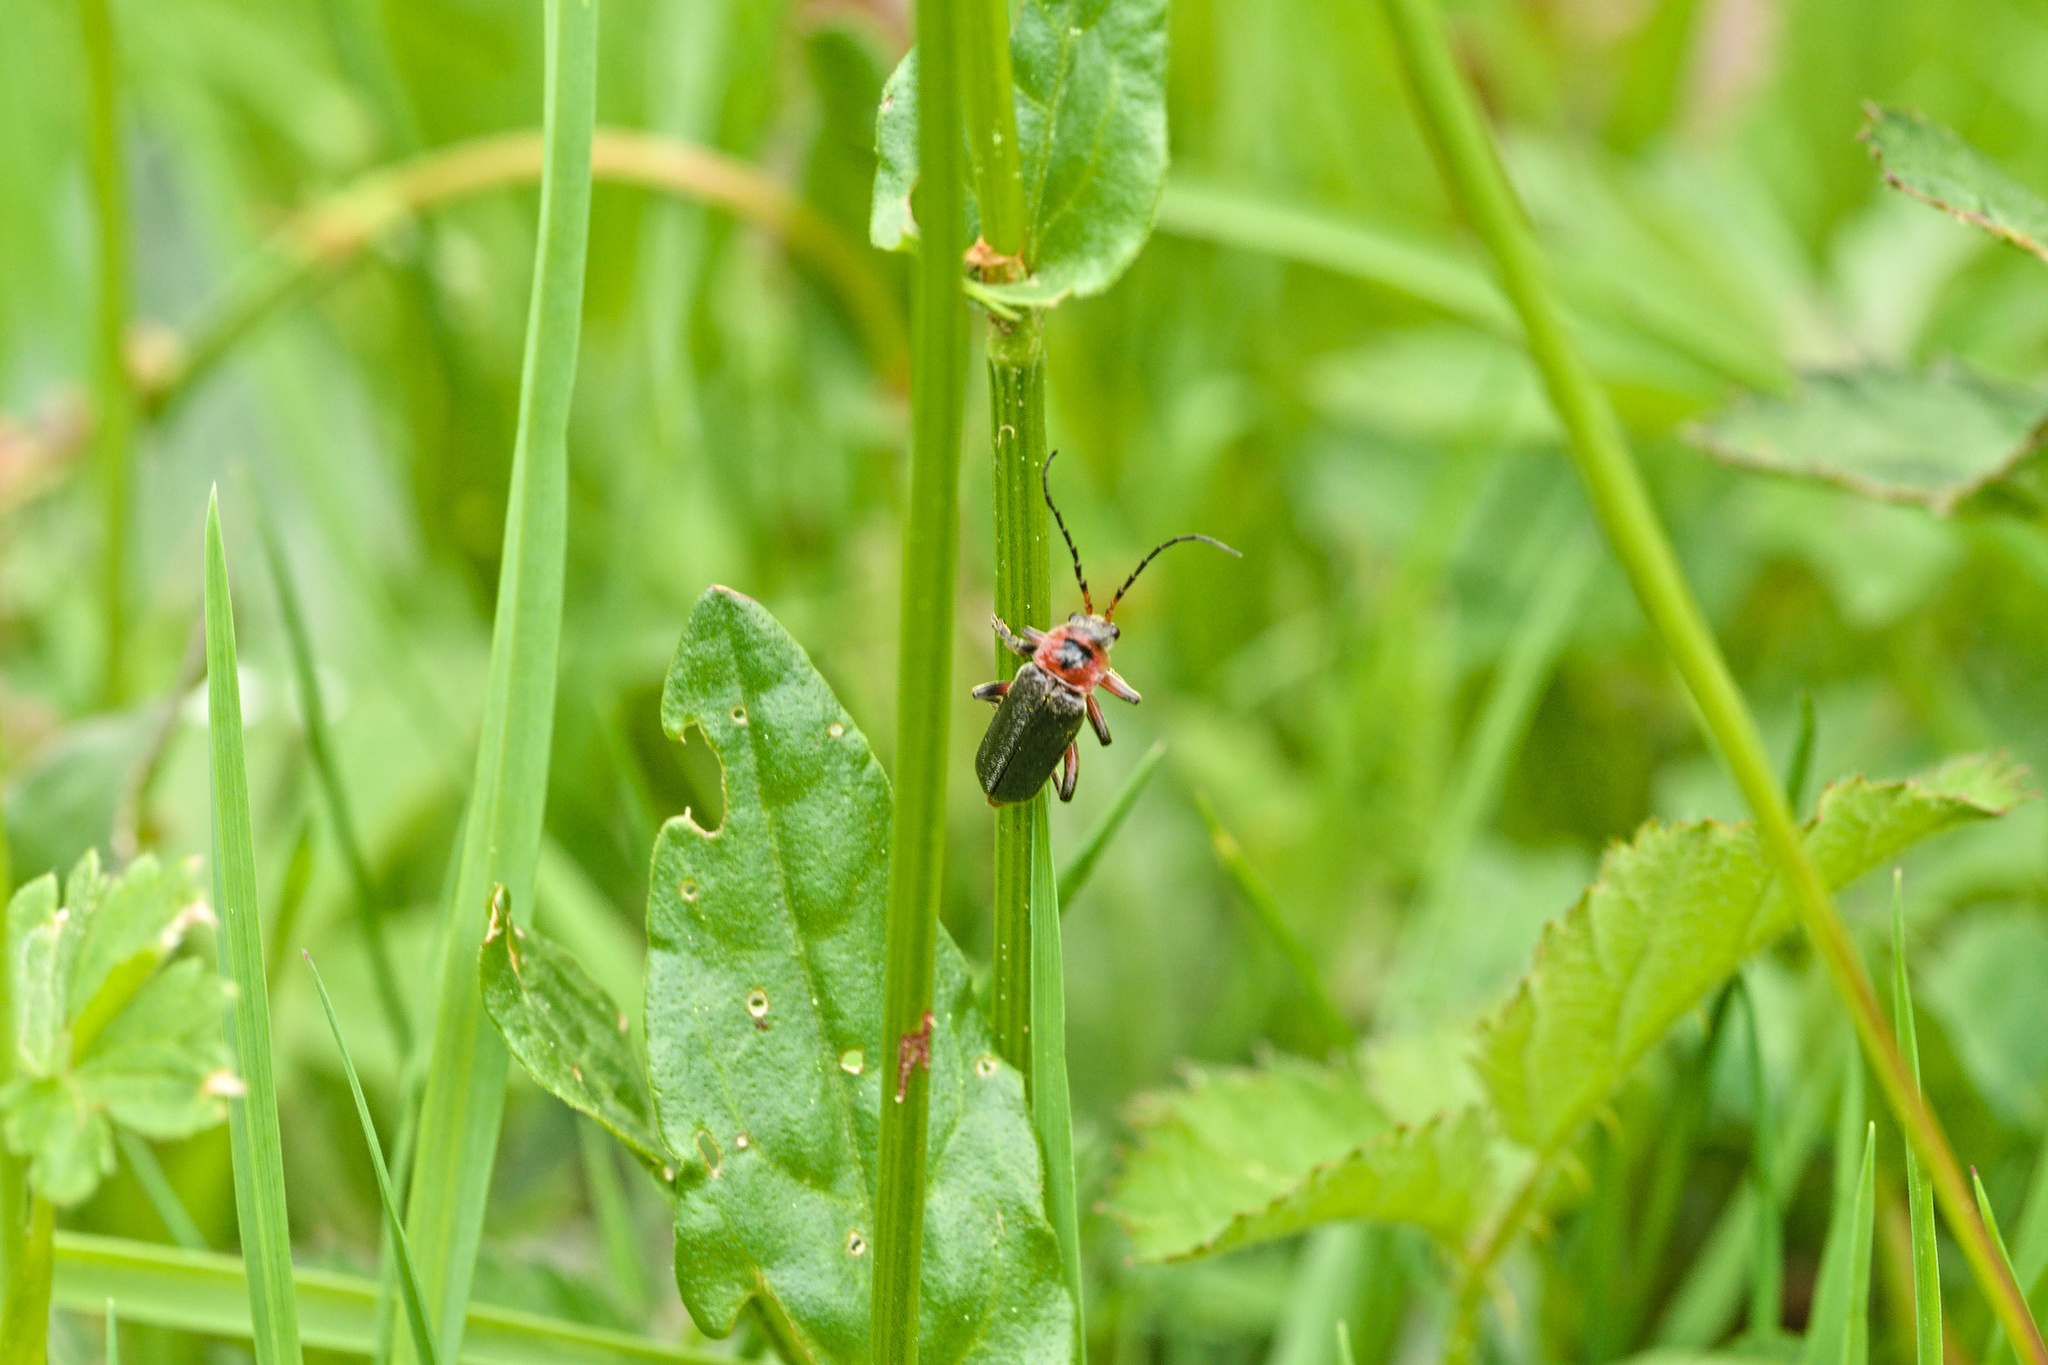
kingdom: Animalia
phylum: Arthropoda
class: Insecta
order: Coleoptera
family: Cantharidae
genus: Cantharis
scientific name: Cantharis rustica
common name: Soldier beetle
